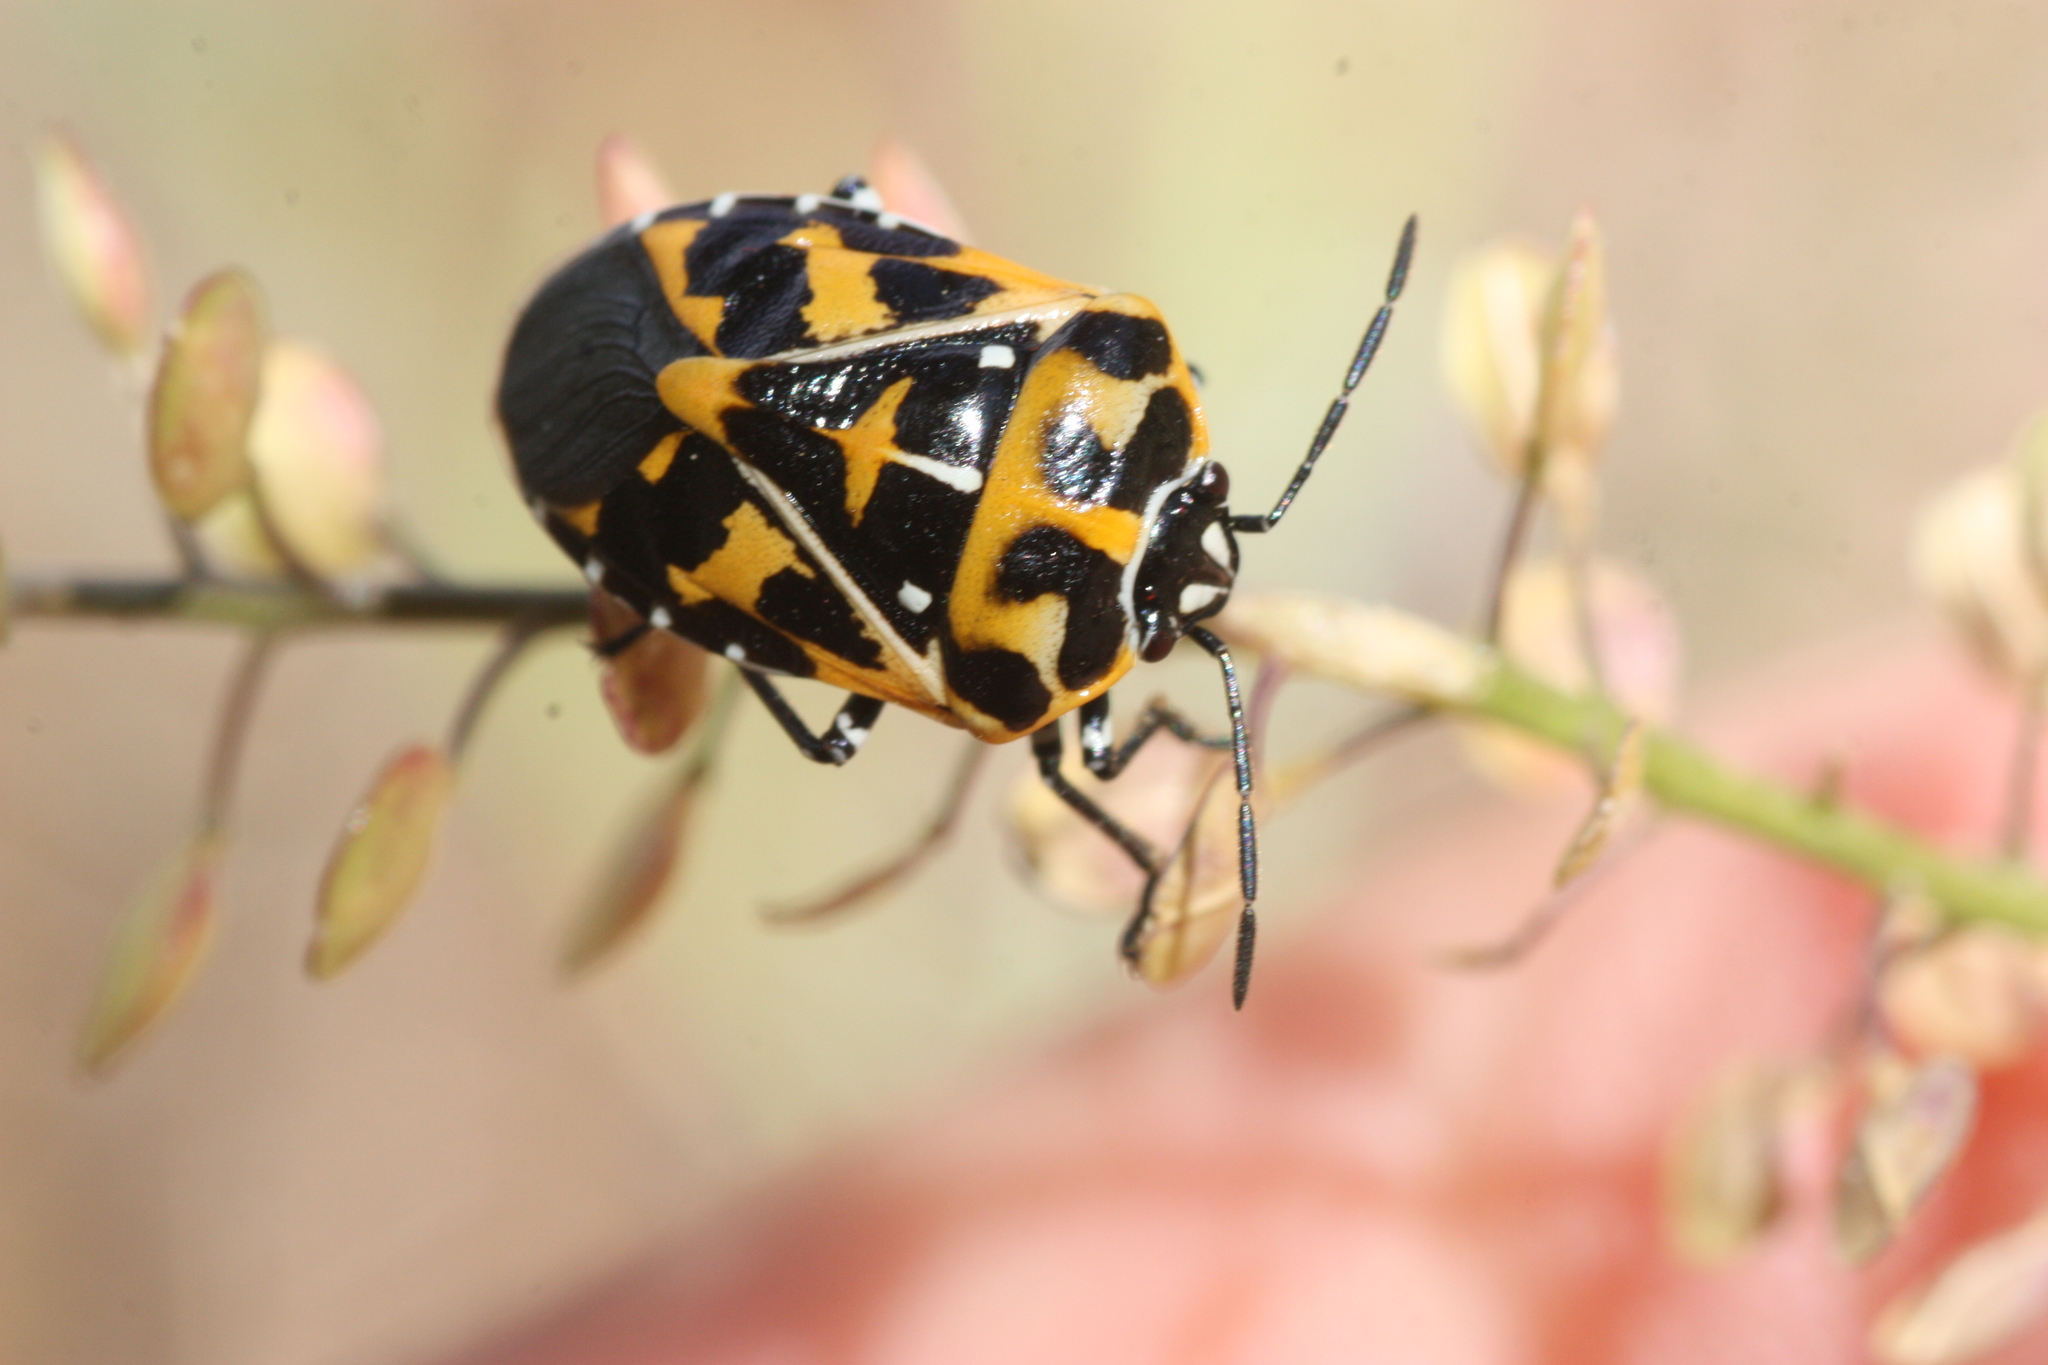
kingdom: Animalia
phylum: Arthropoda
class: Insecta
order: Hemiptera
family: Pentatomidae
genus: Murgantia
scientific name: Murgantia histrionica
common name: Harlequin bug
